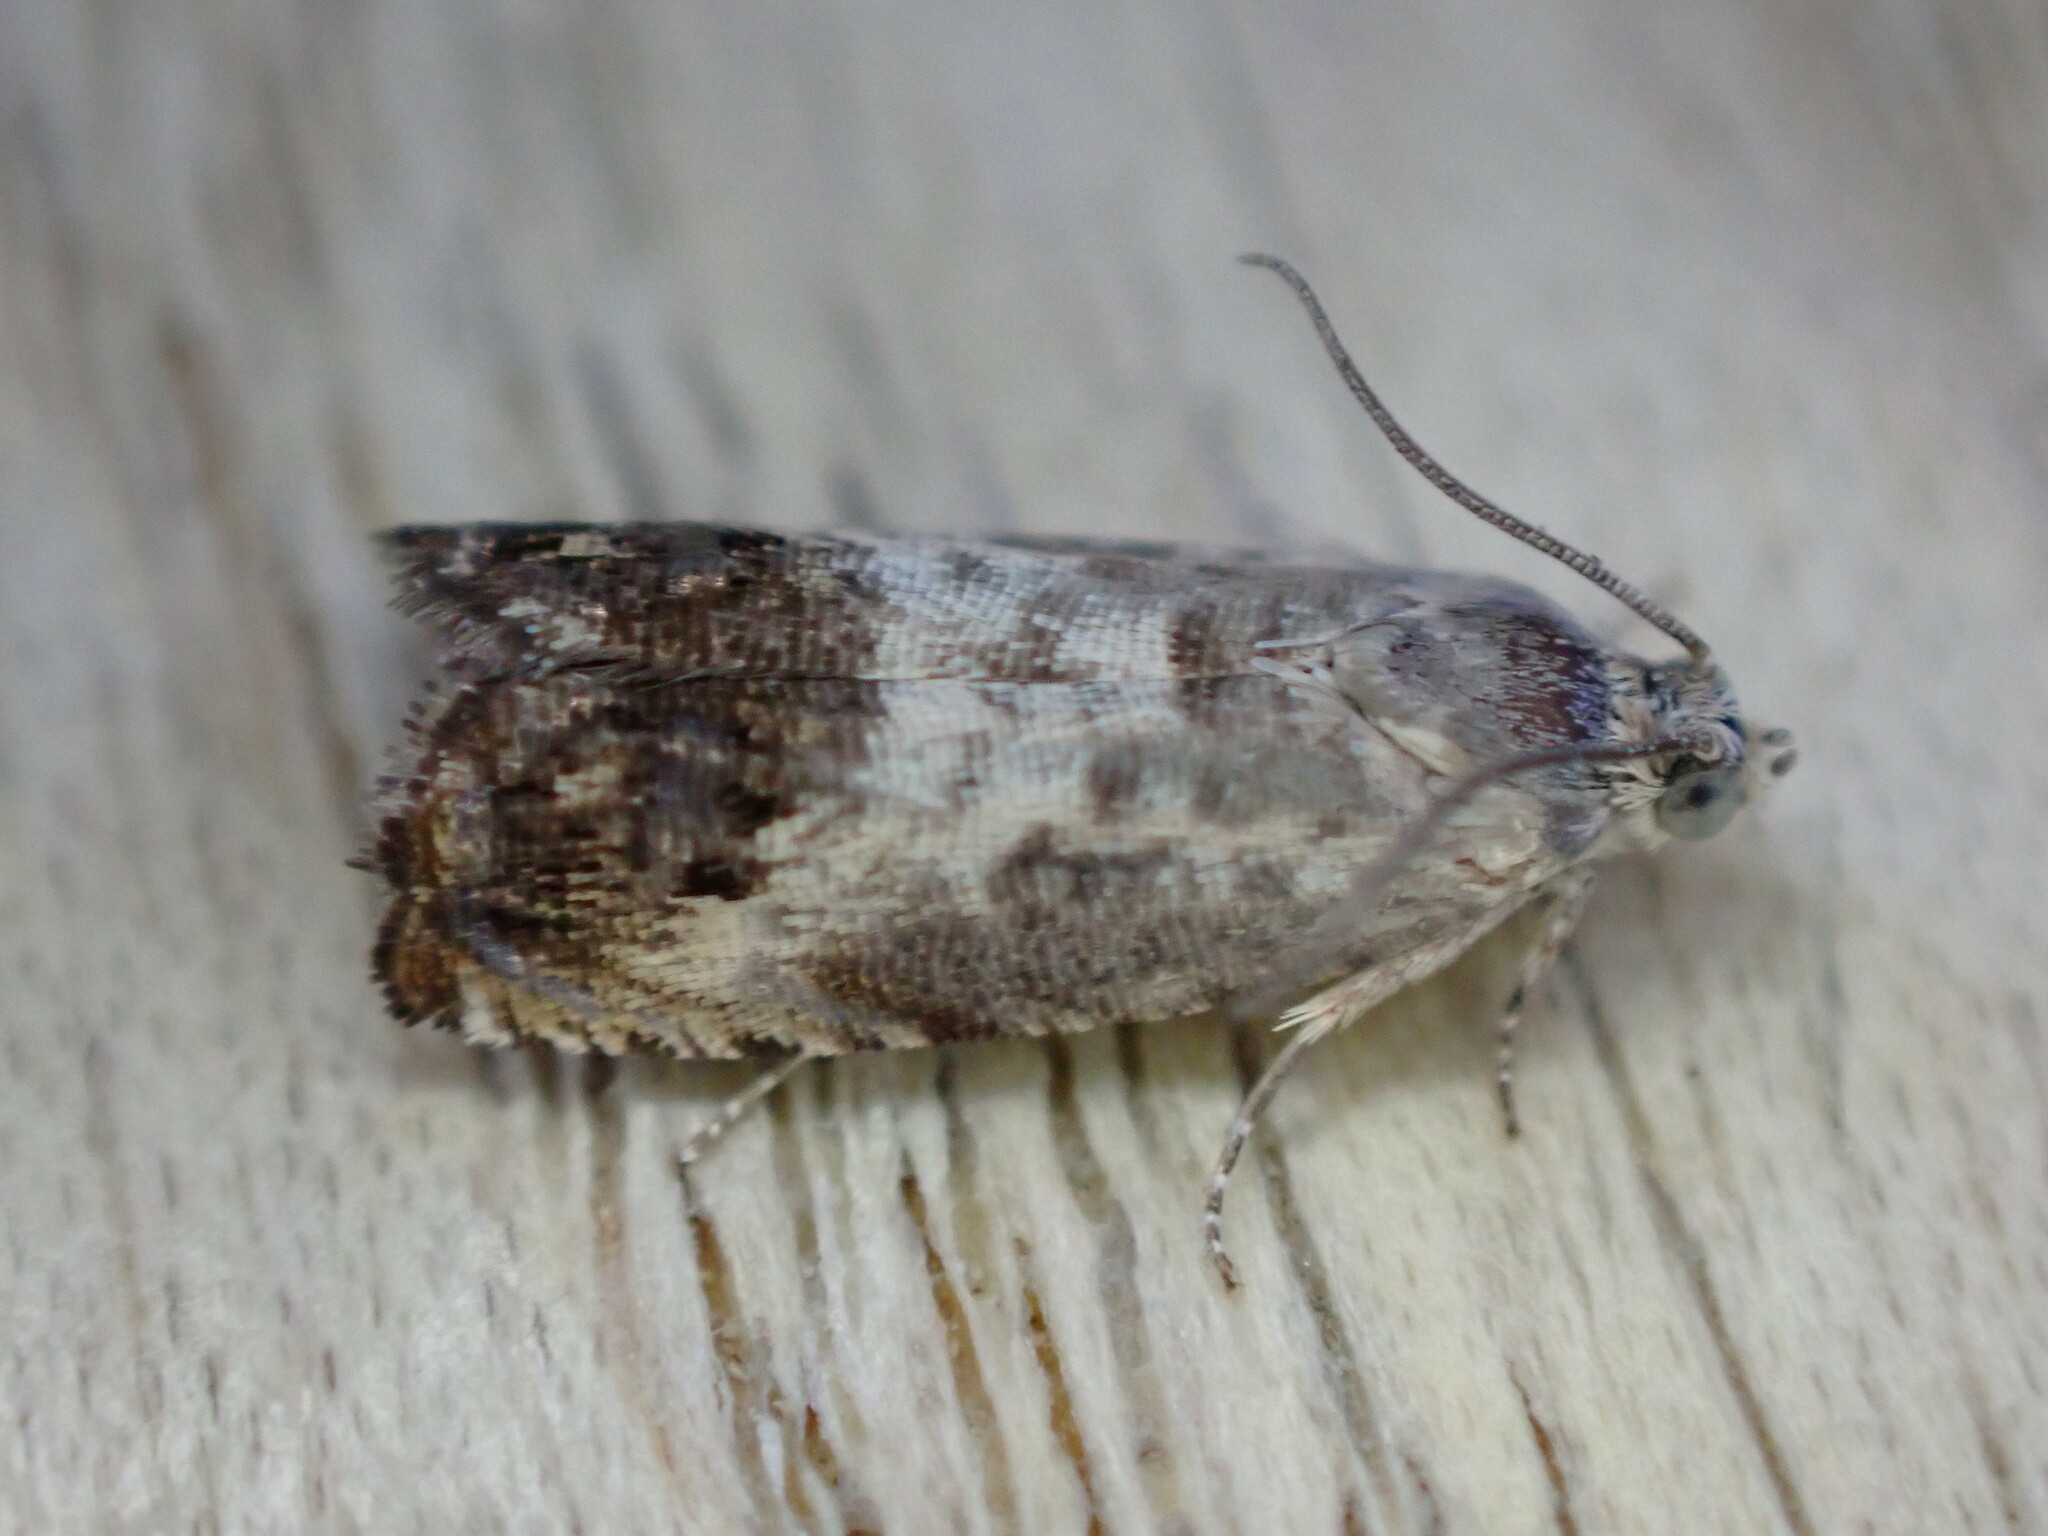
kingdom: Animalia
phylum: Arthropoda
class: Insecta
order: Lepidoptera
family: Tortricidae
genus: Pammene
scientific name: Pammene fasciana
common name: Acorn piercer
